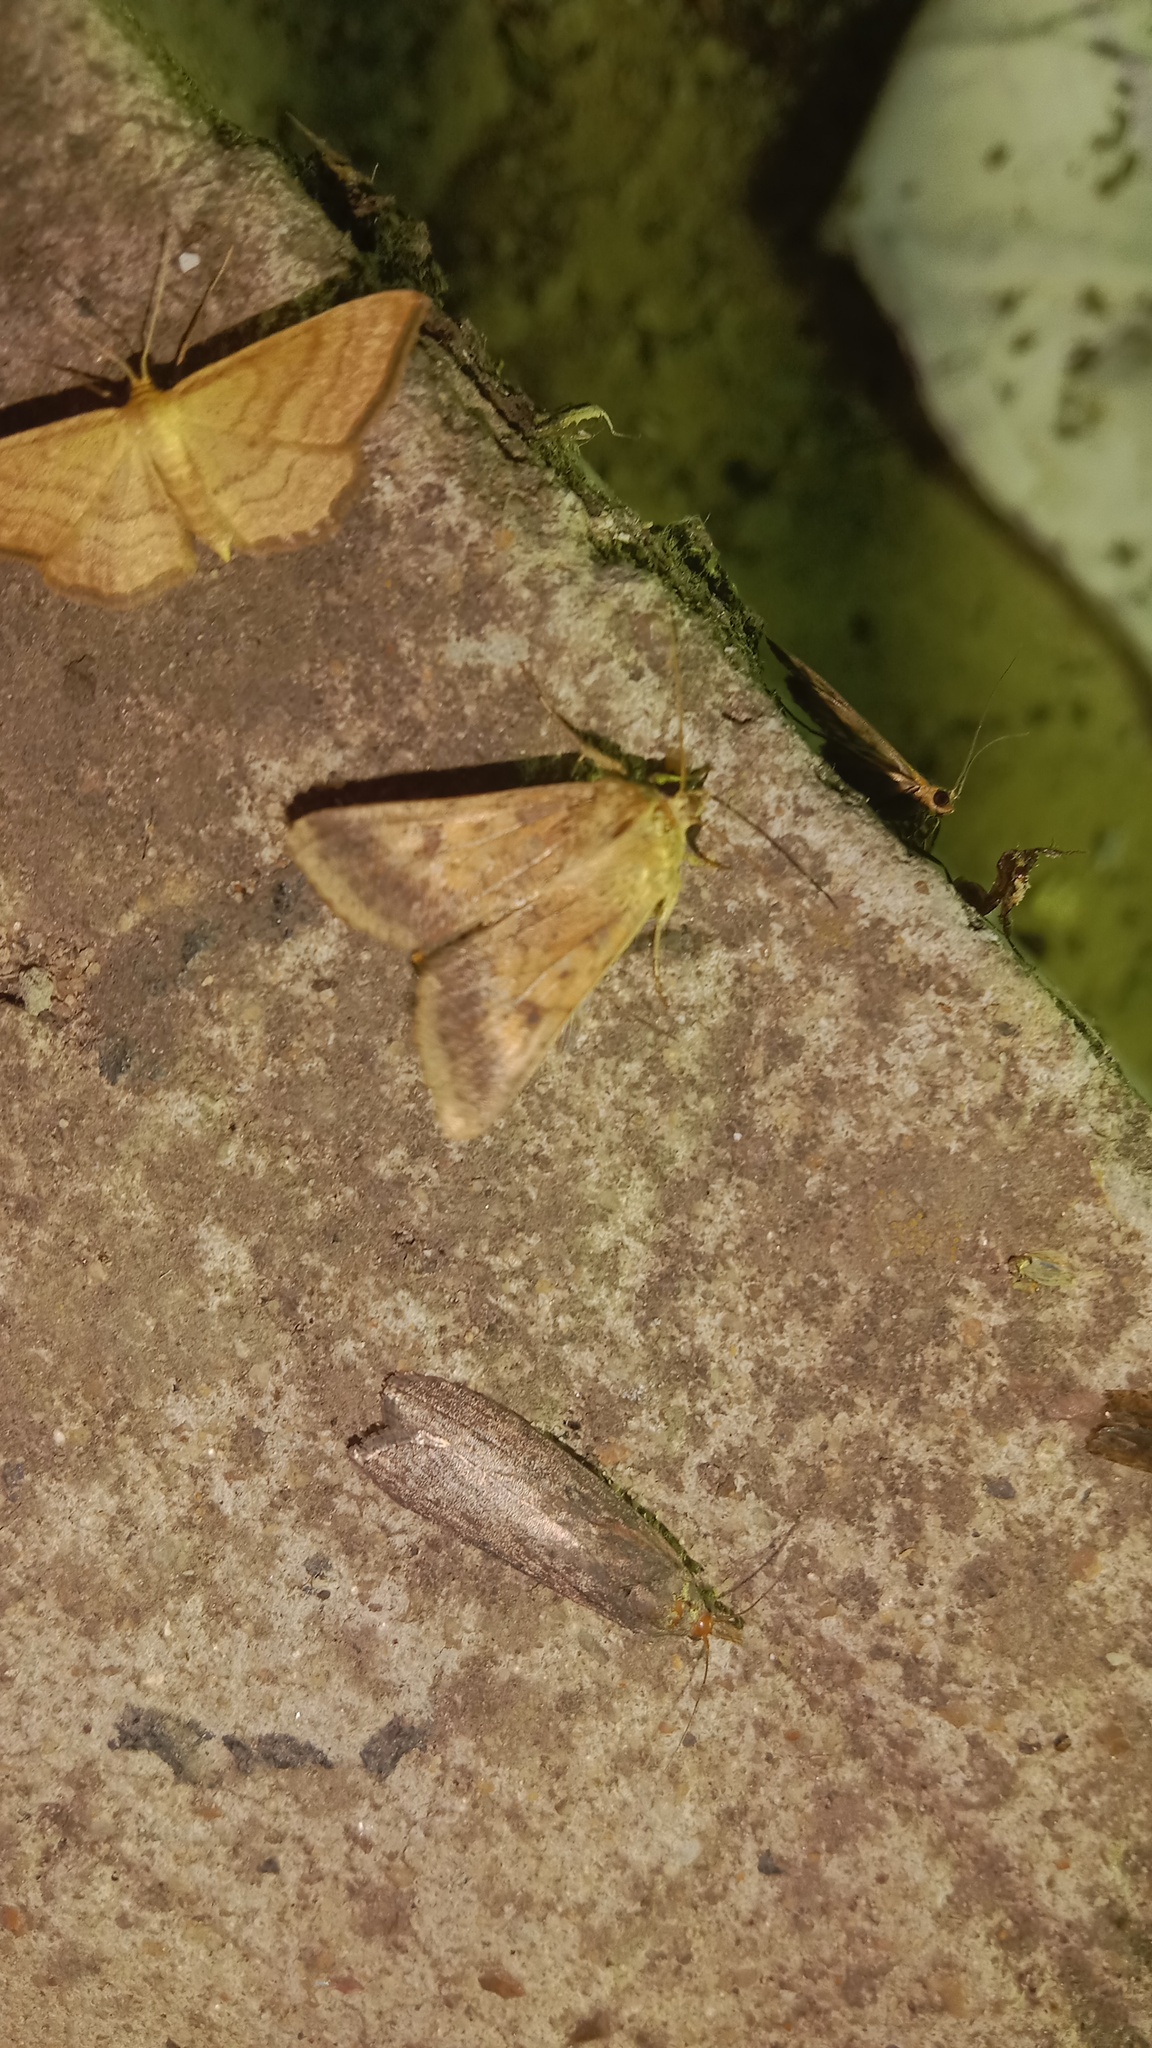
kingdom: Animalia
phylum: Arthropoda
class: Insecta
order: Lepidoptera
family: Noctuidae
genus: Helicoverpa
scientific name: Helicoverpa armigera
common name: Cotton bollworm
